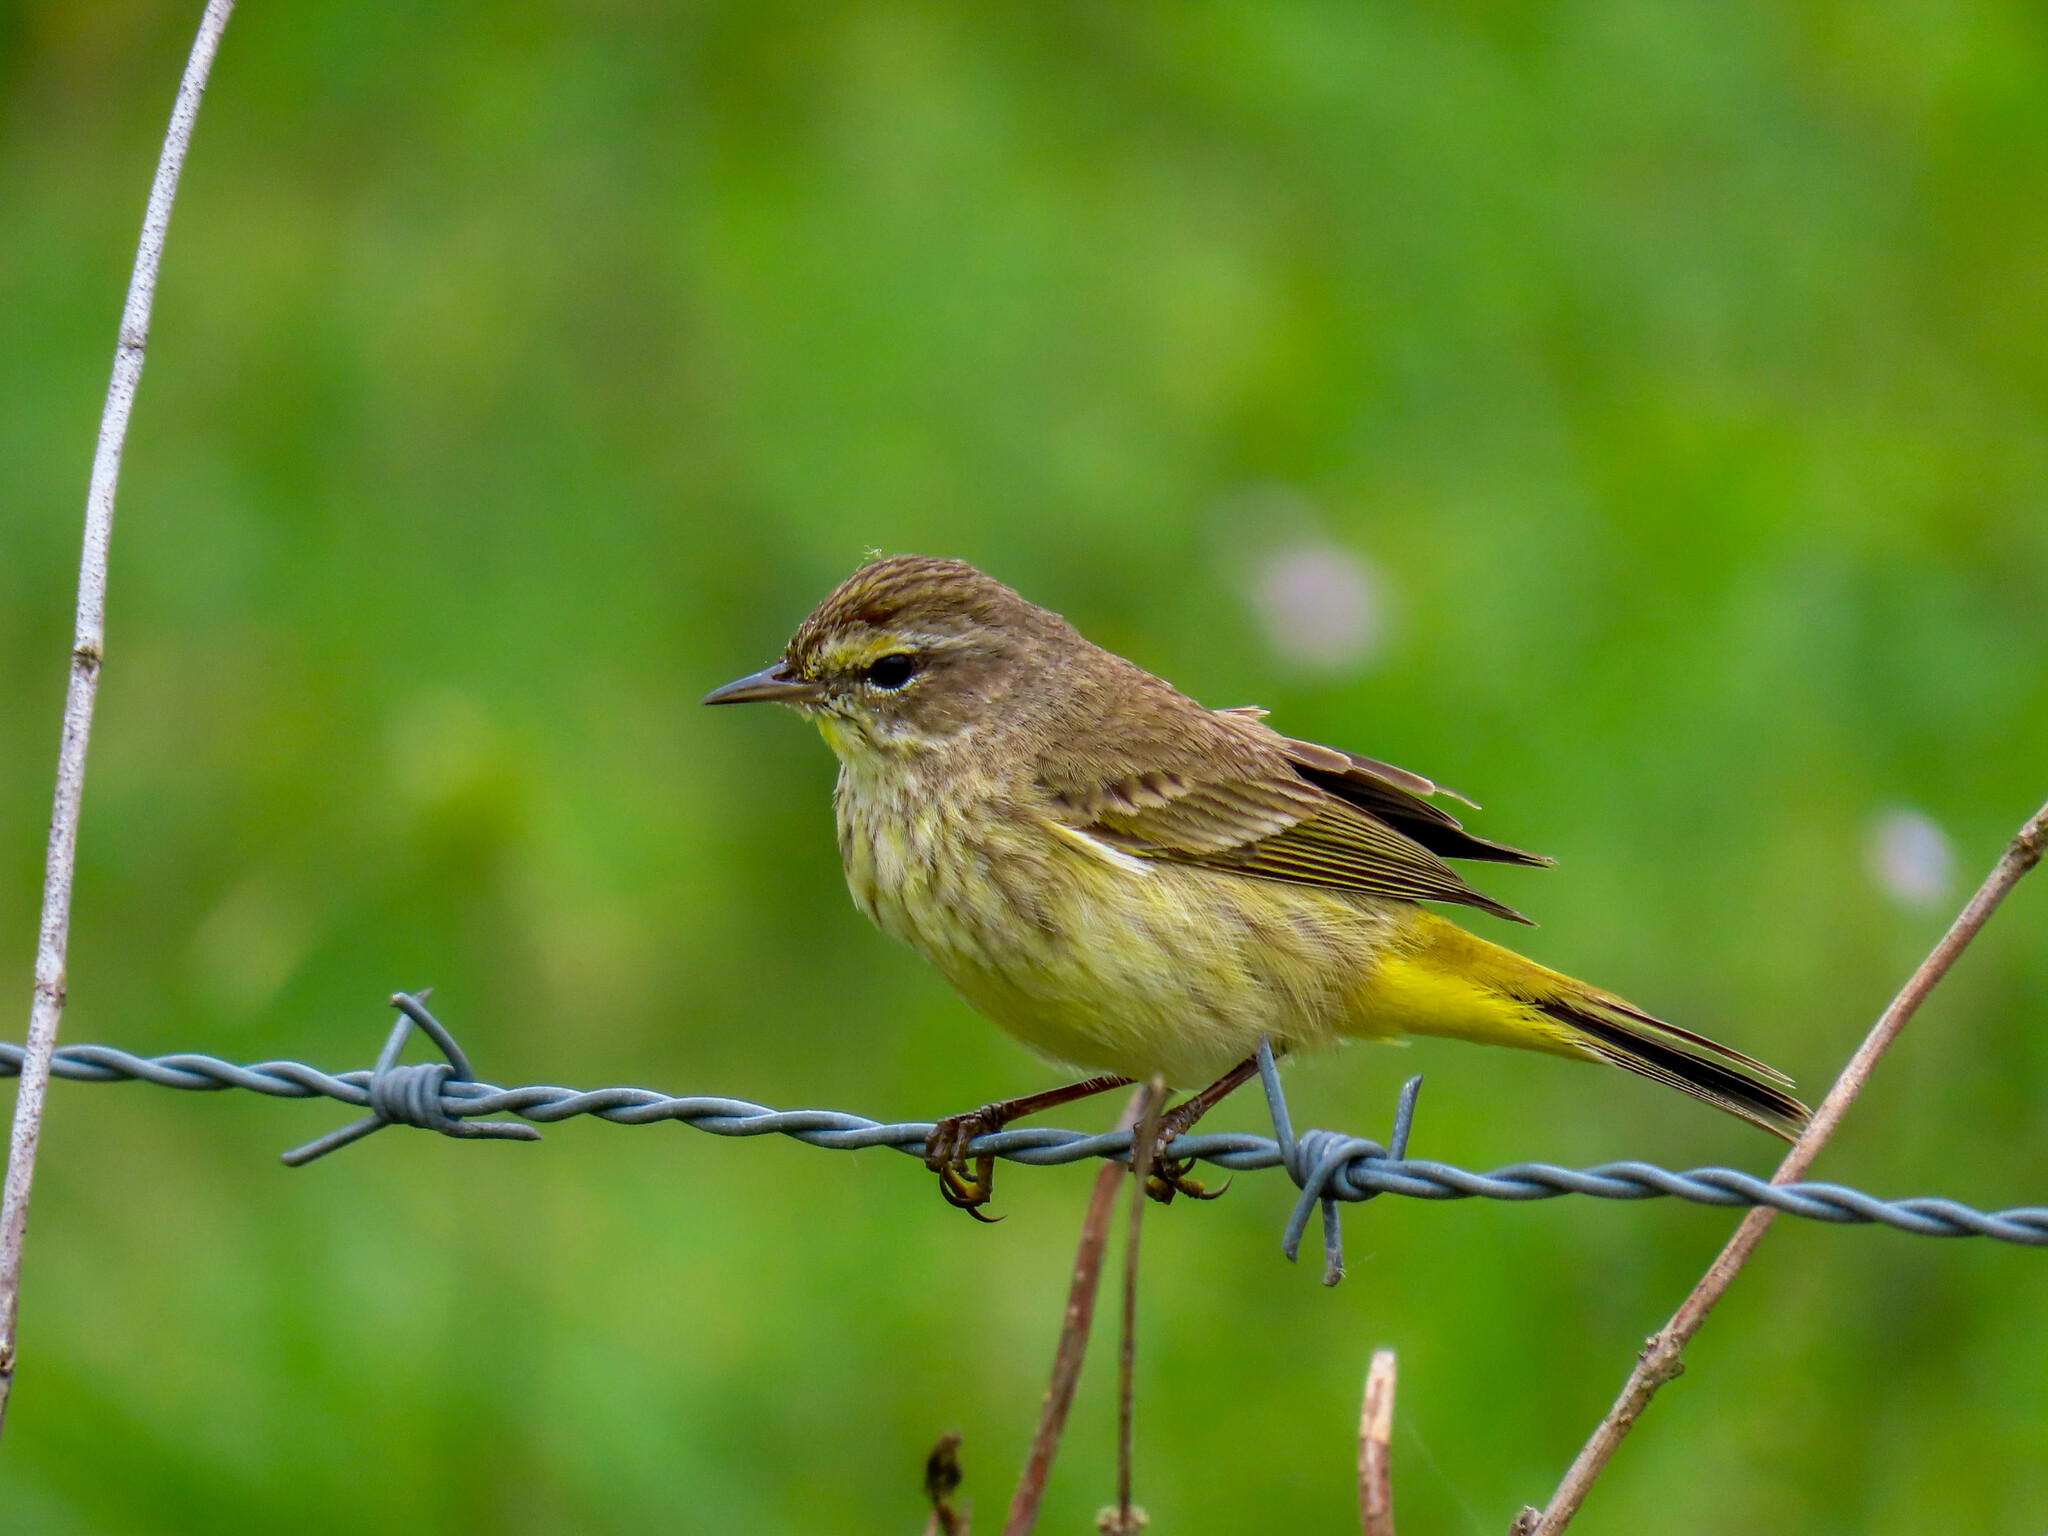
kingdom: Animalia
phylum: Chordata
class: Aves
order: Passeriformes
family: Parulidae
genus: Setophaga
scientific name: Setophaga palmarum
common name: Palm warbler
